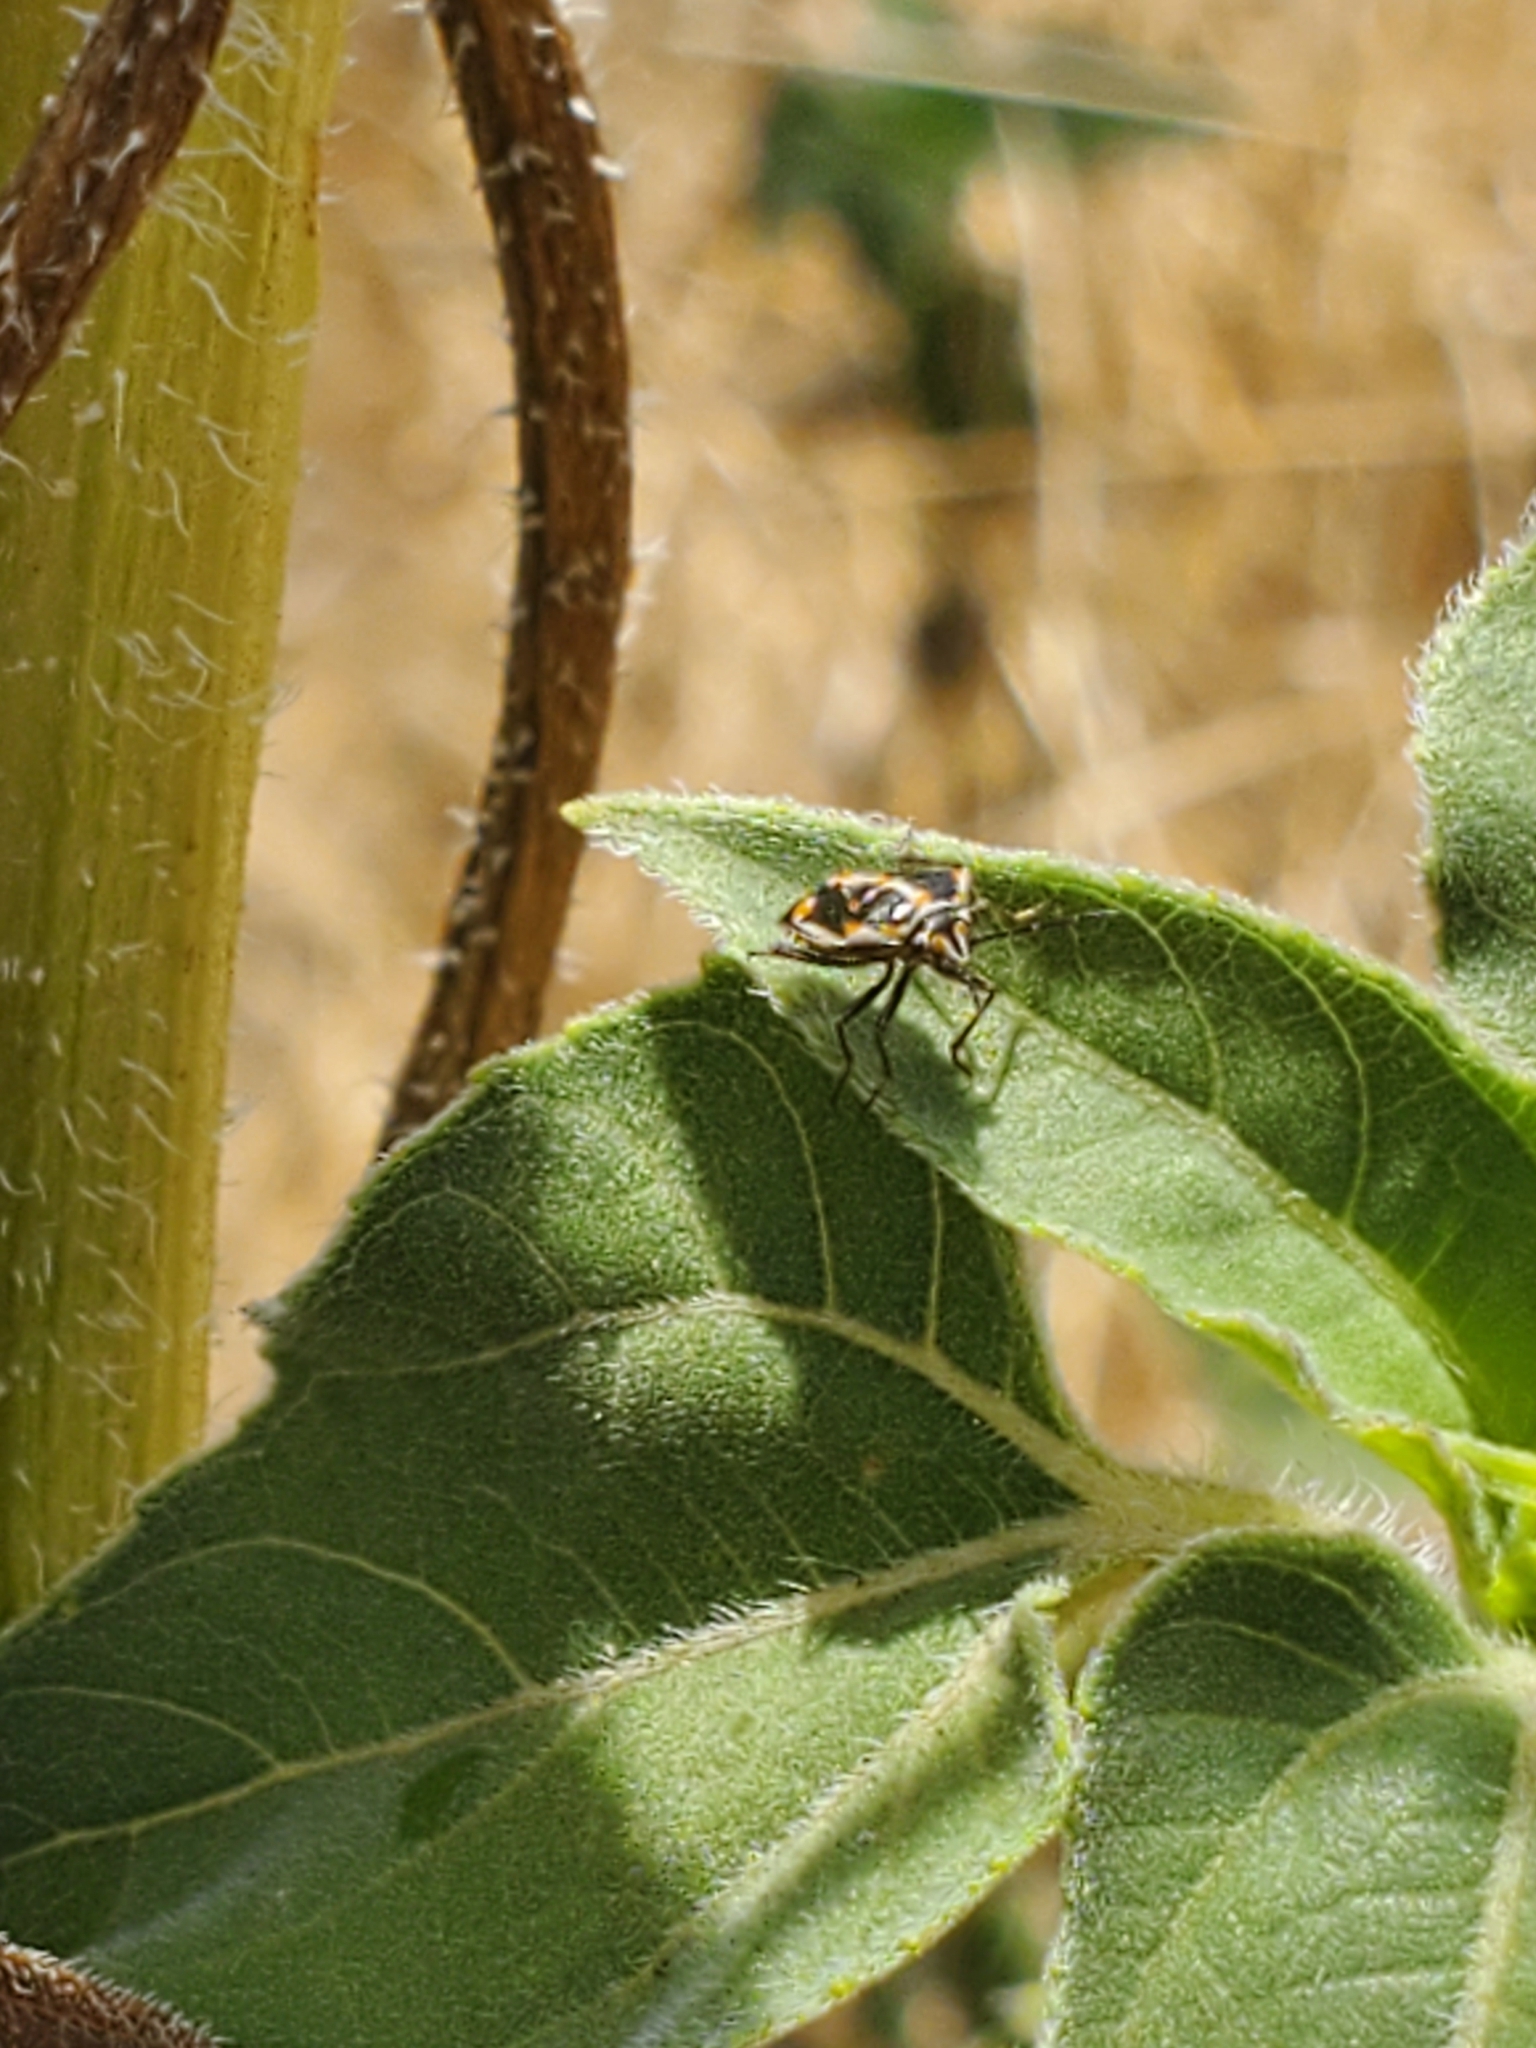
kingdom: Animalia
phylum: Arthropoda
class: Insecta
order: Hemiptera
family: Pentatomidae
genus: Bagrada
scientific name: Bagrada hilaris
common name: Bagrada bug
